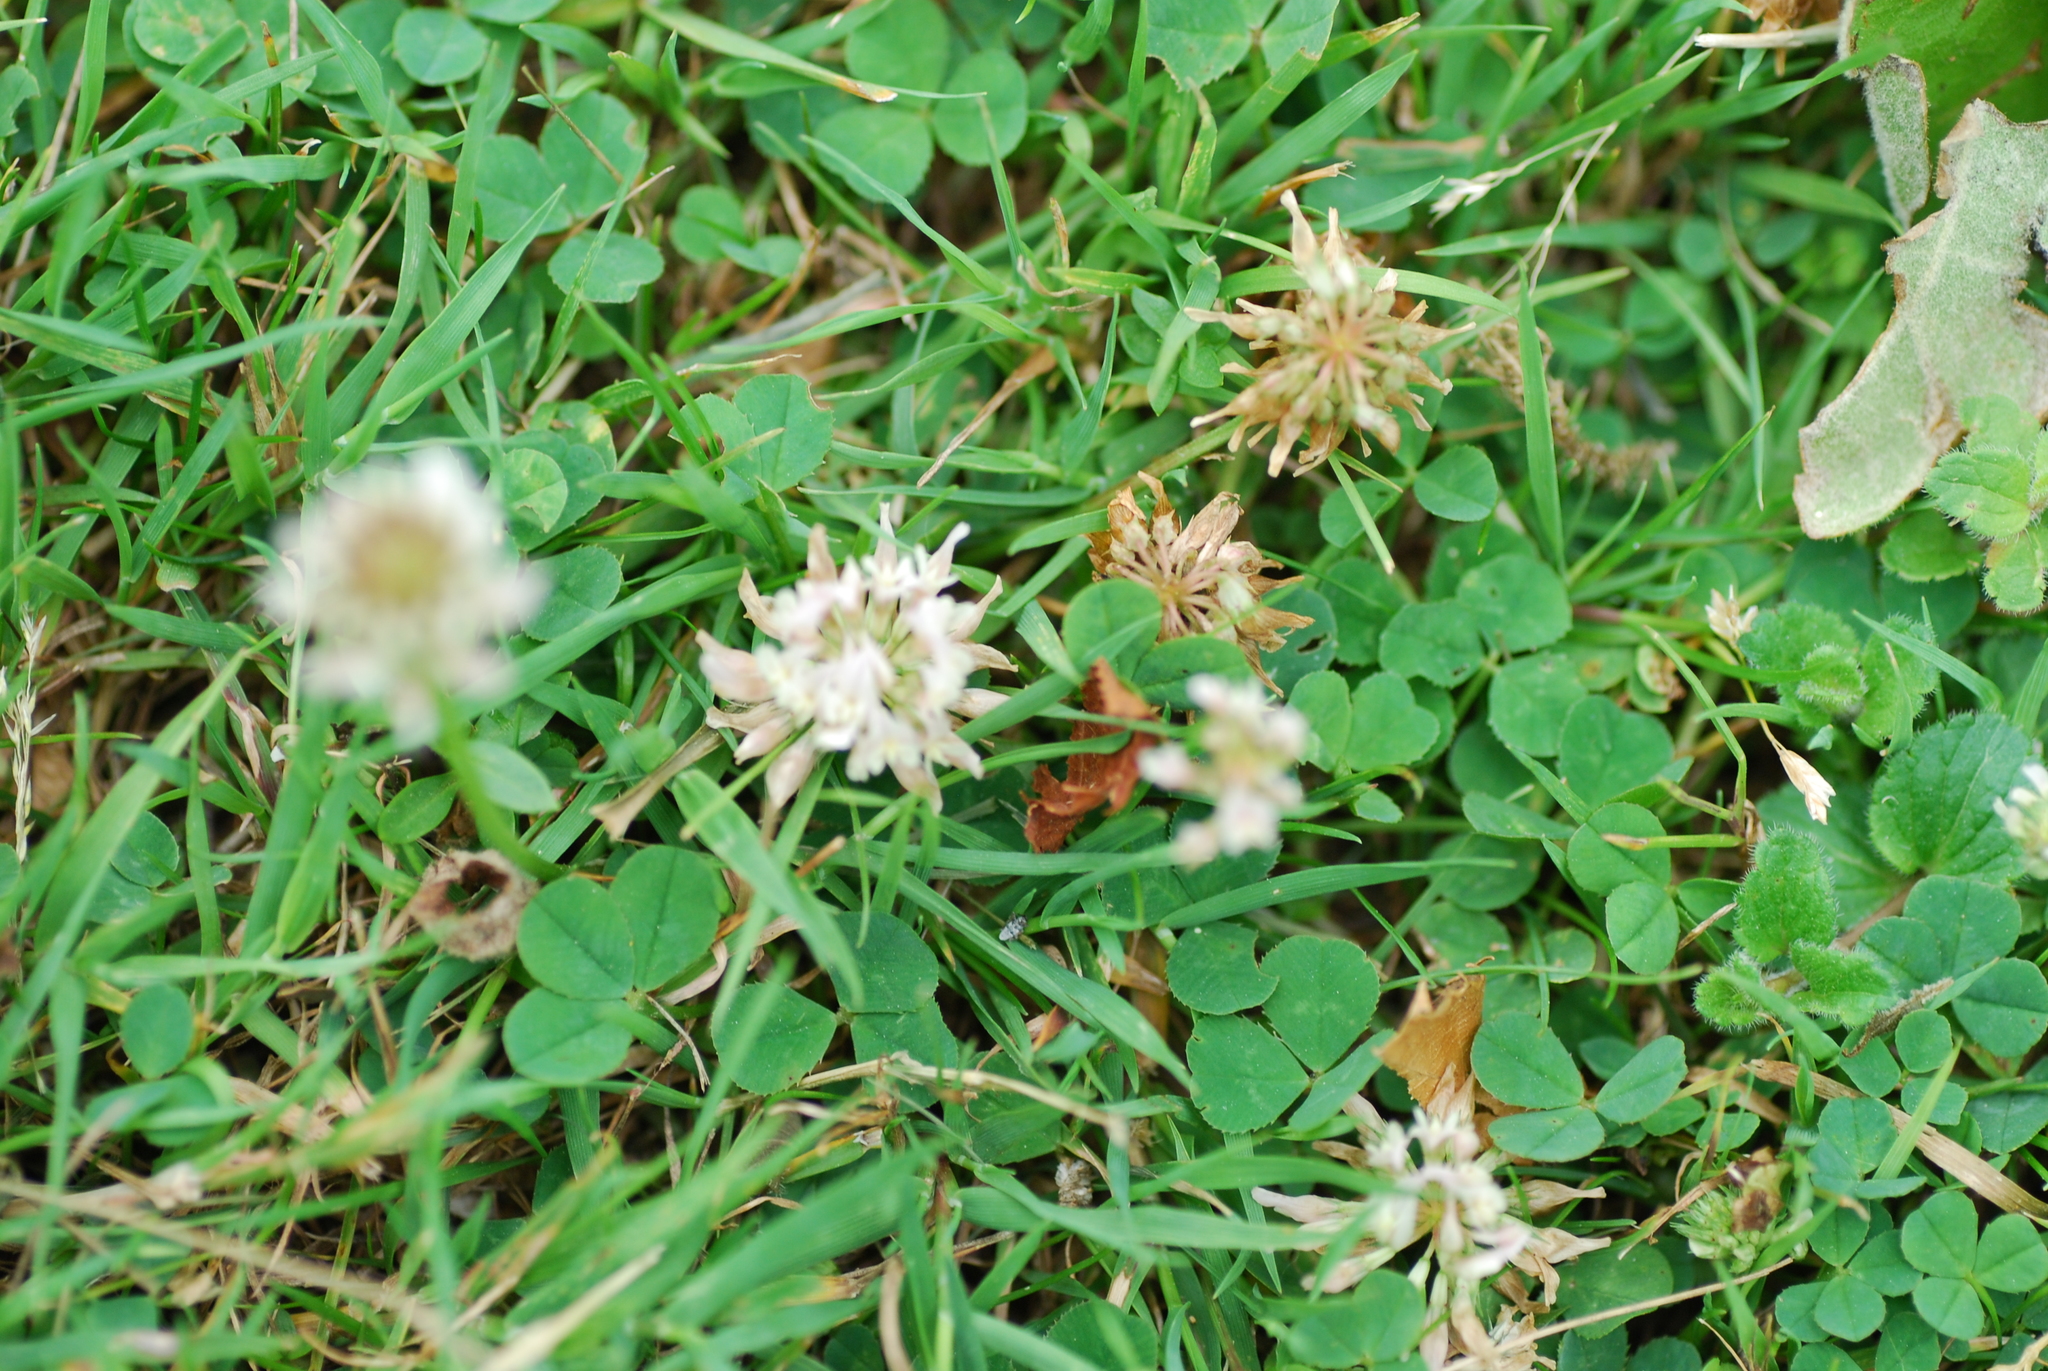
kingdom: Plantae
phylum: Tracheophyta
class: Magnoliopsida
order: Fabales
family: Fabaceae
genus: Trifolium
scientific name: Trifolium repens
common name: White clover
